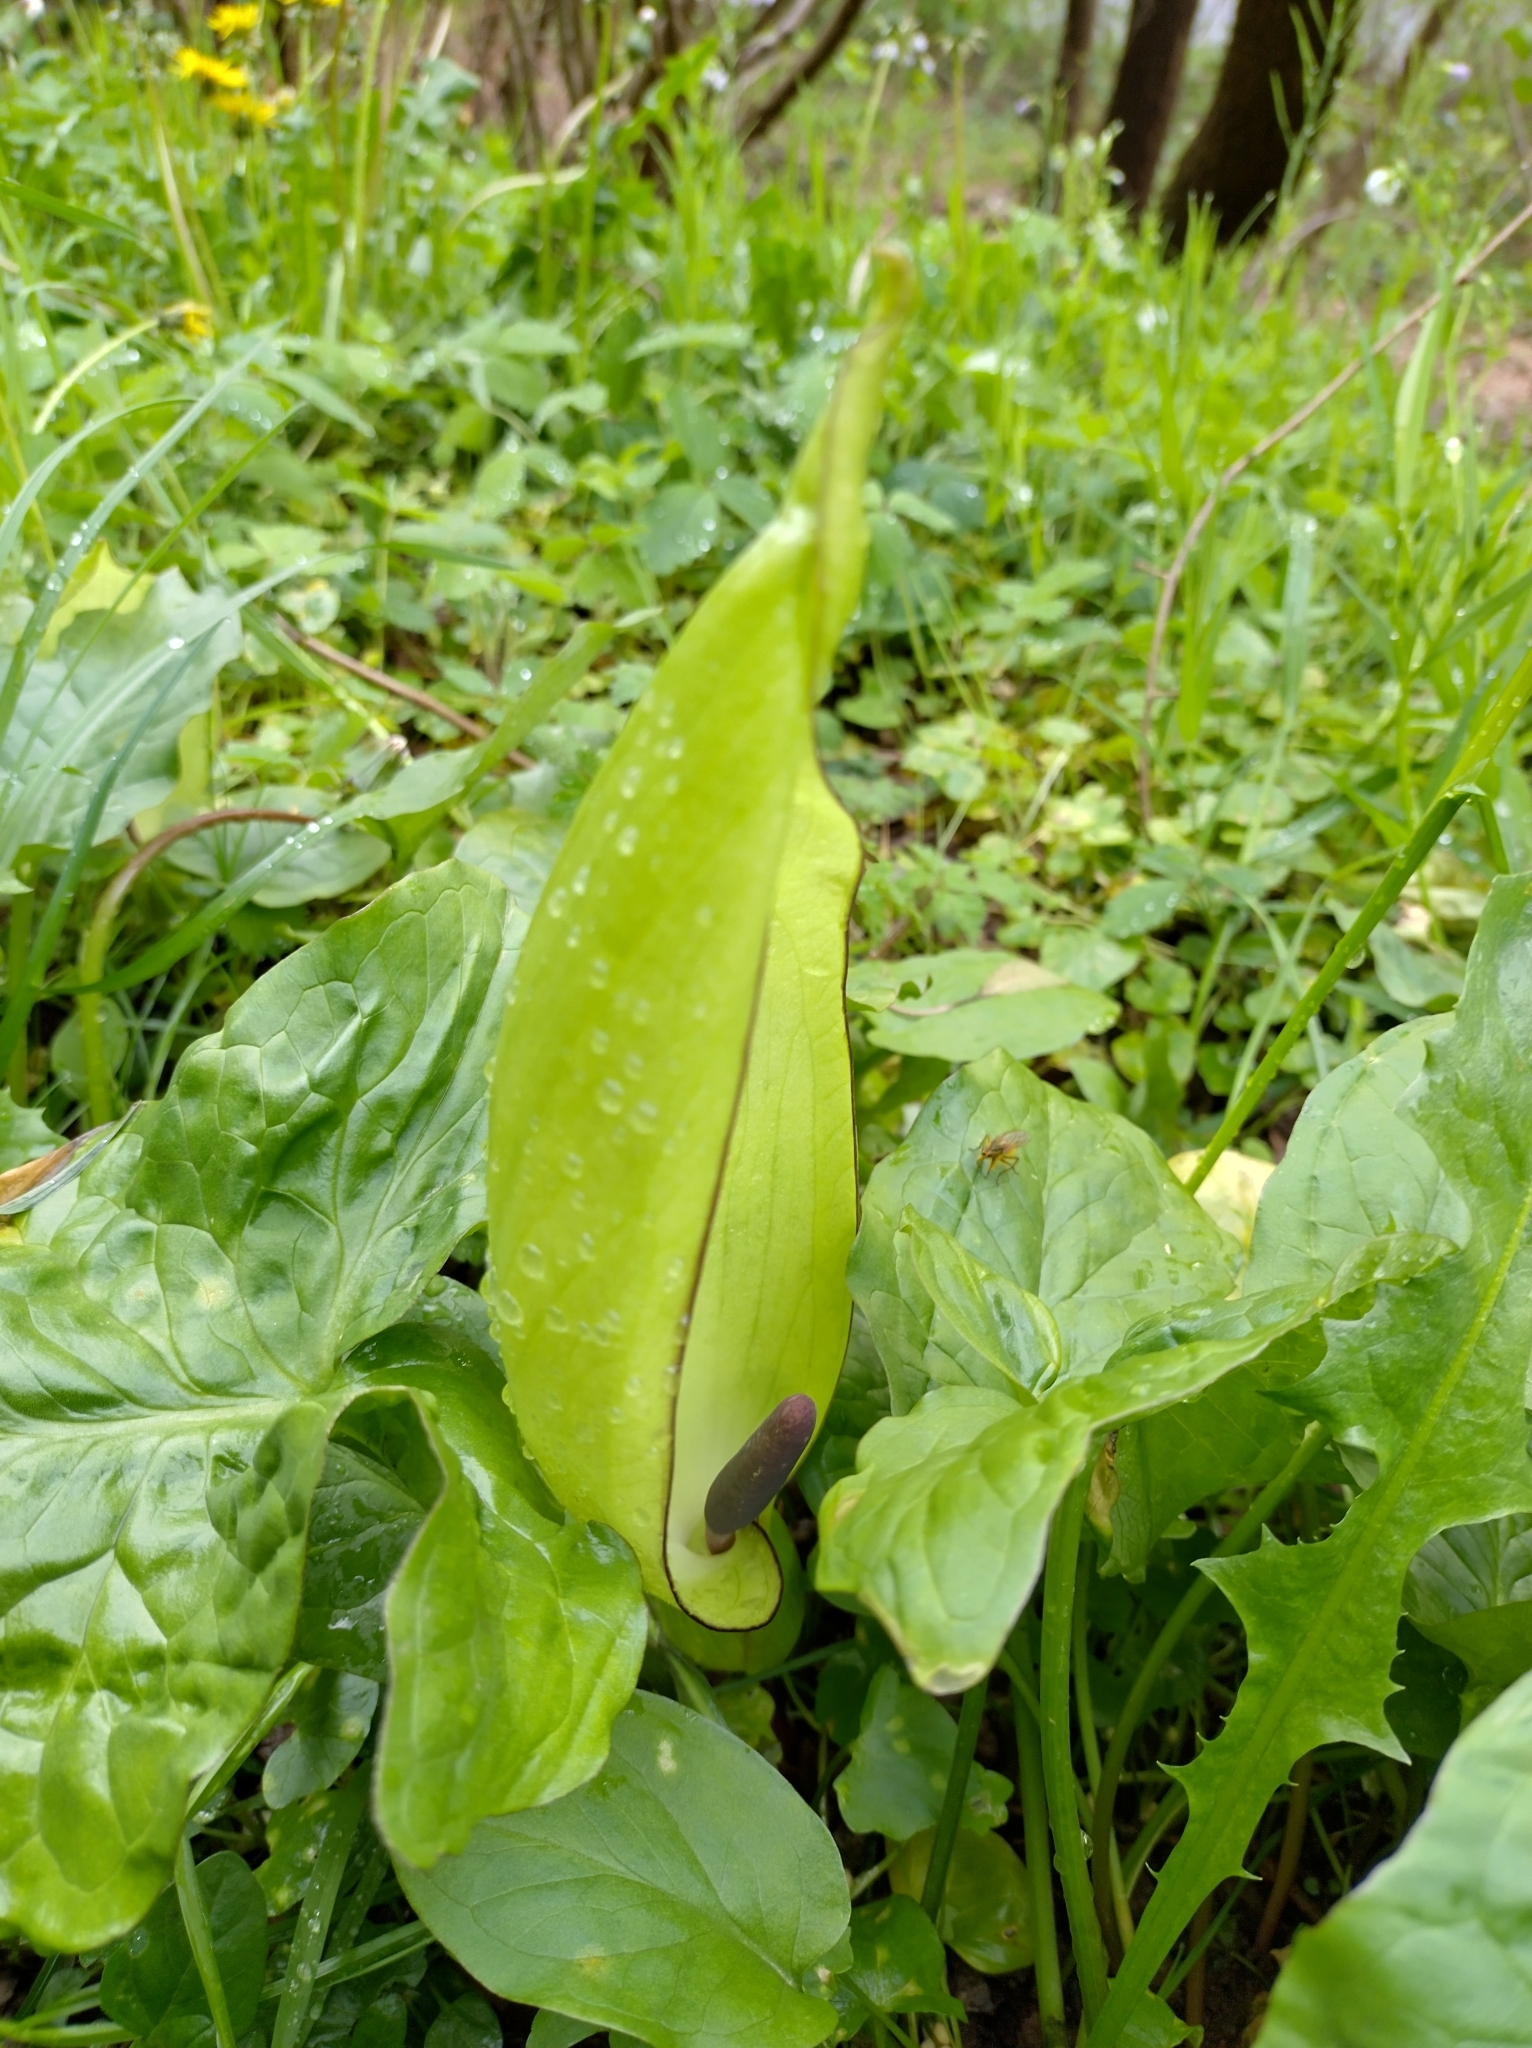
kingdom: Plantae
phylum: Tracheophyta
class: Liliopsida
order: Alismatales
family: Araceae
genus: Arum
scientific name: Arum maculatum
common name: Lords-and-ladies
